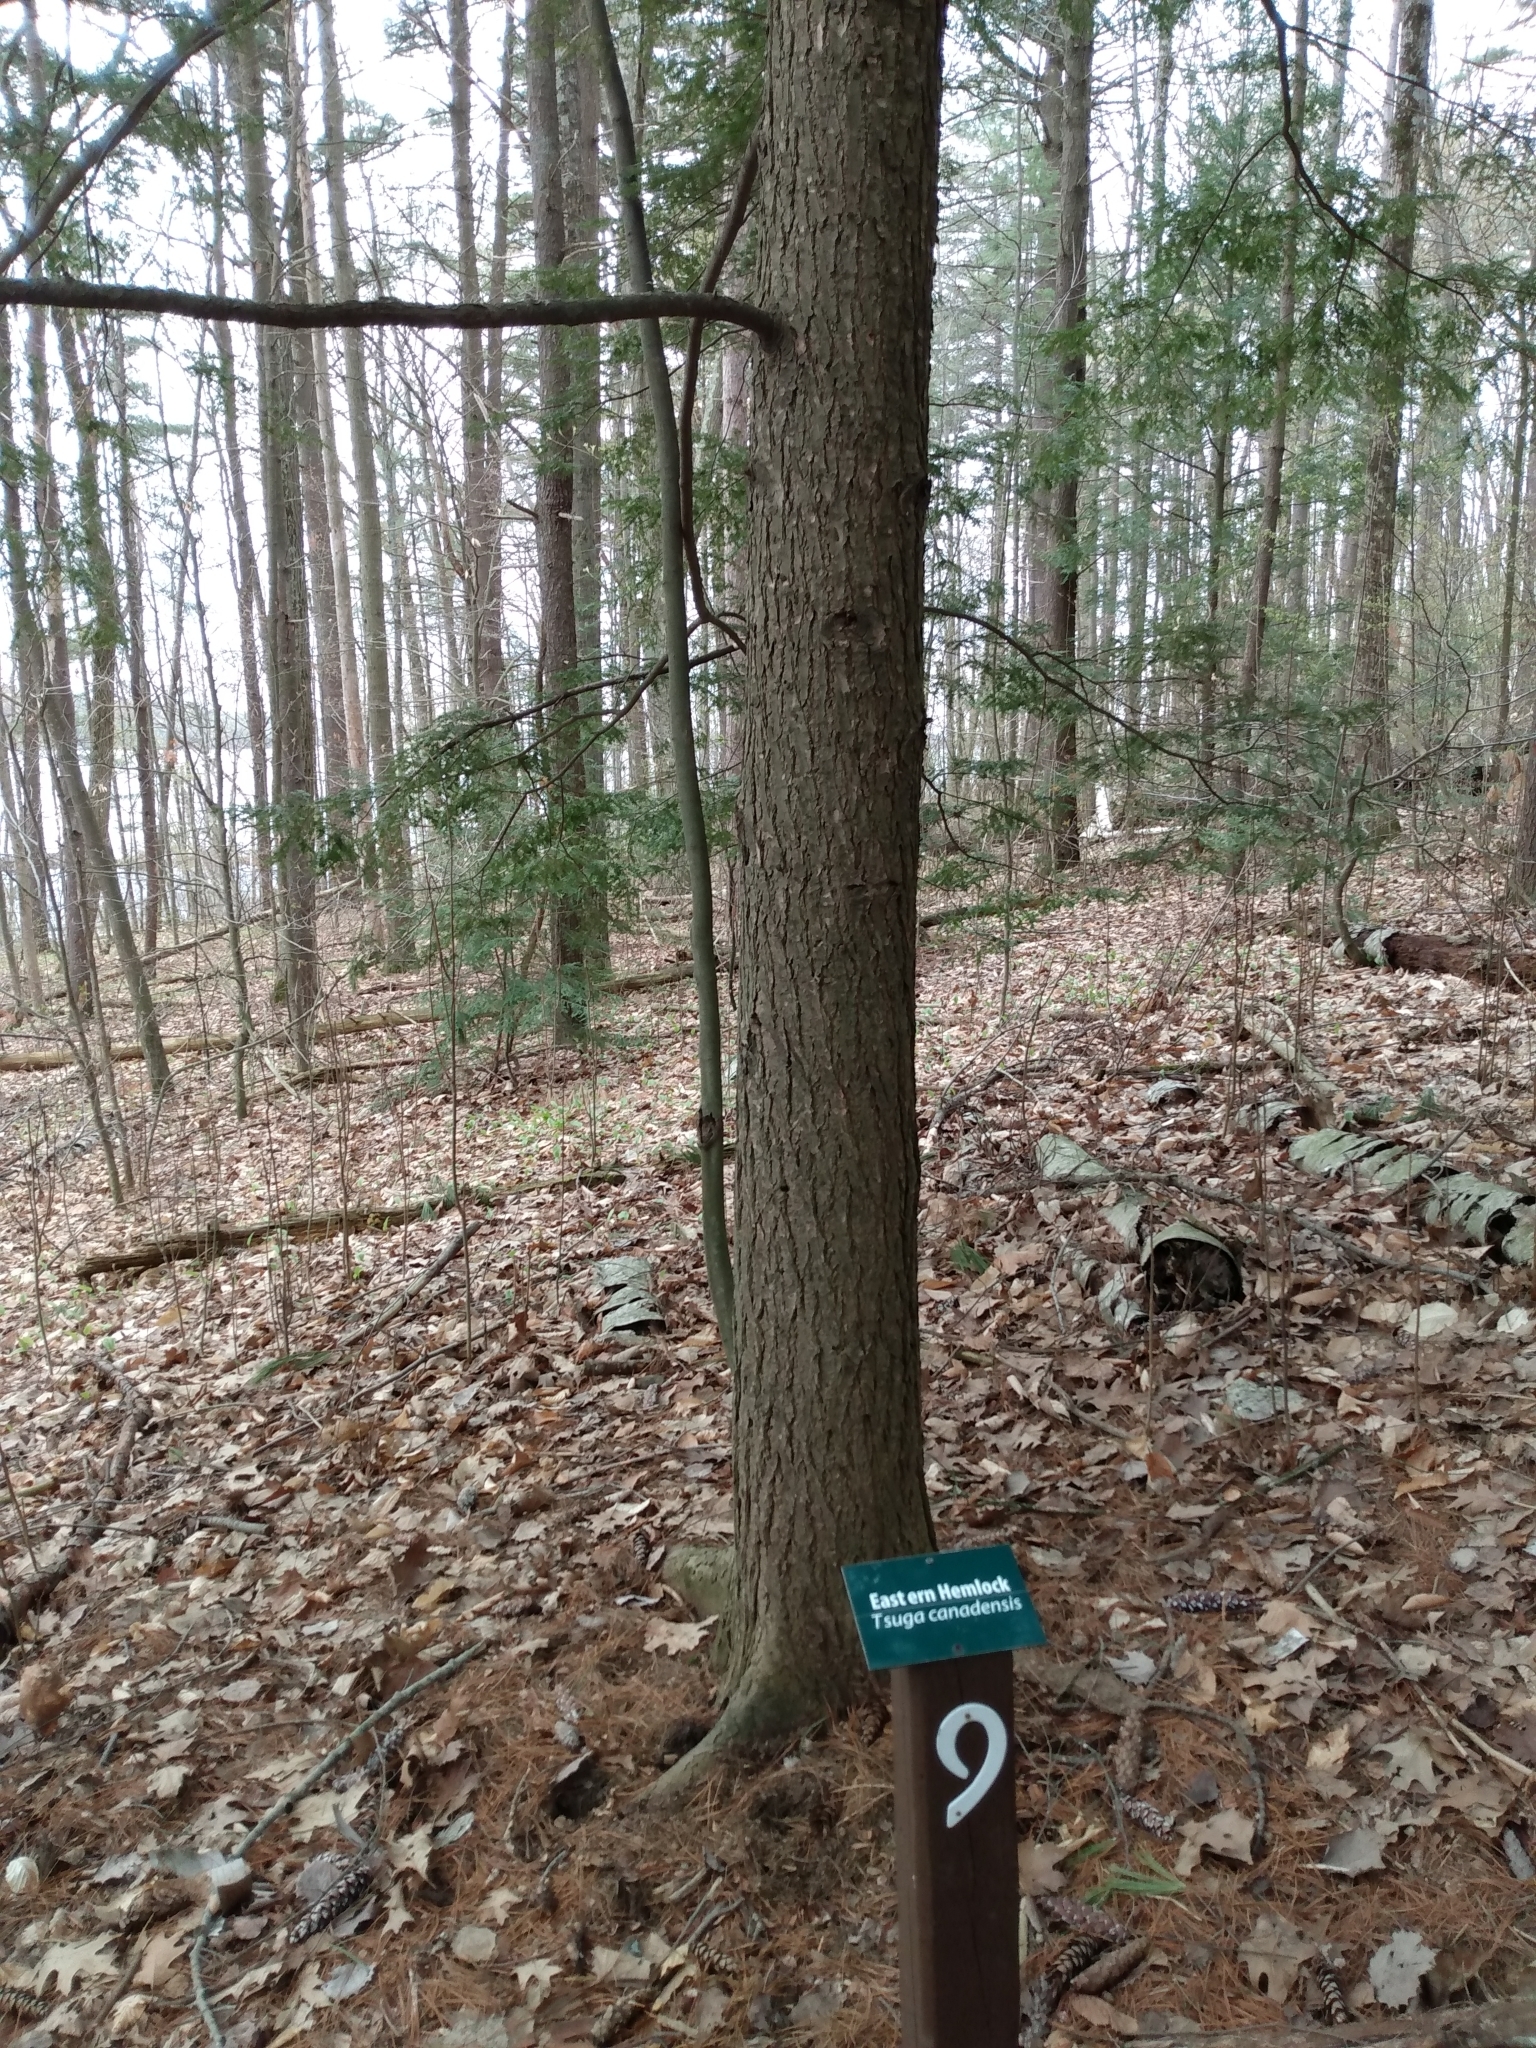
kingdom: Plantae
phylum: Tracheophyta
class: Pinopsida
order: Pinales
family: Pinaceae
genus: Tsuga
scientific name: Tsuga canadensis
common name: Eastern hemlock
